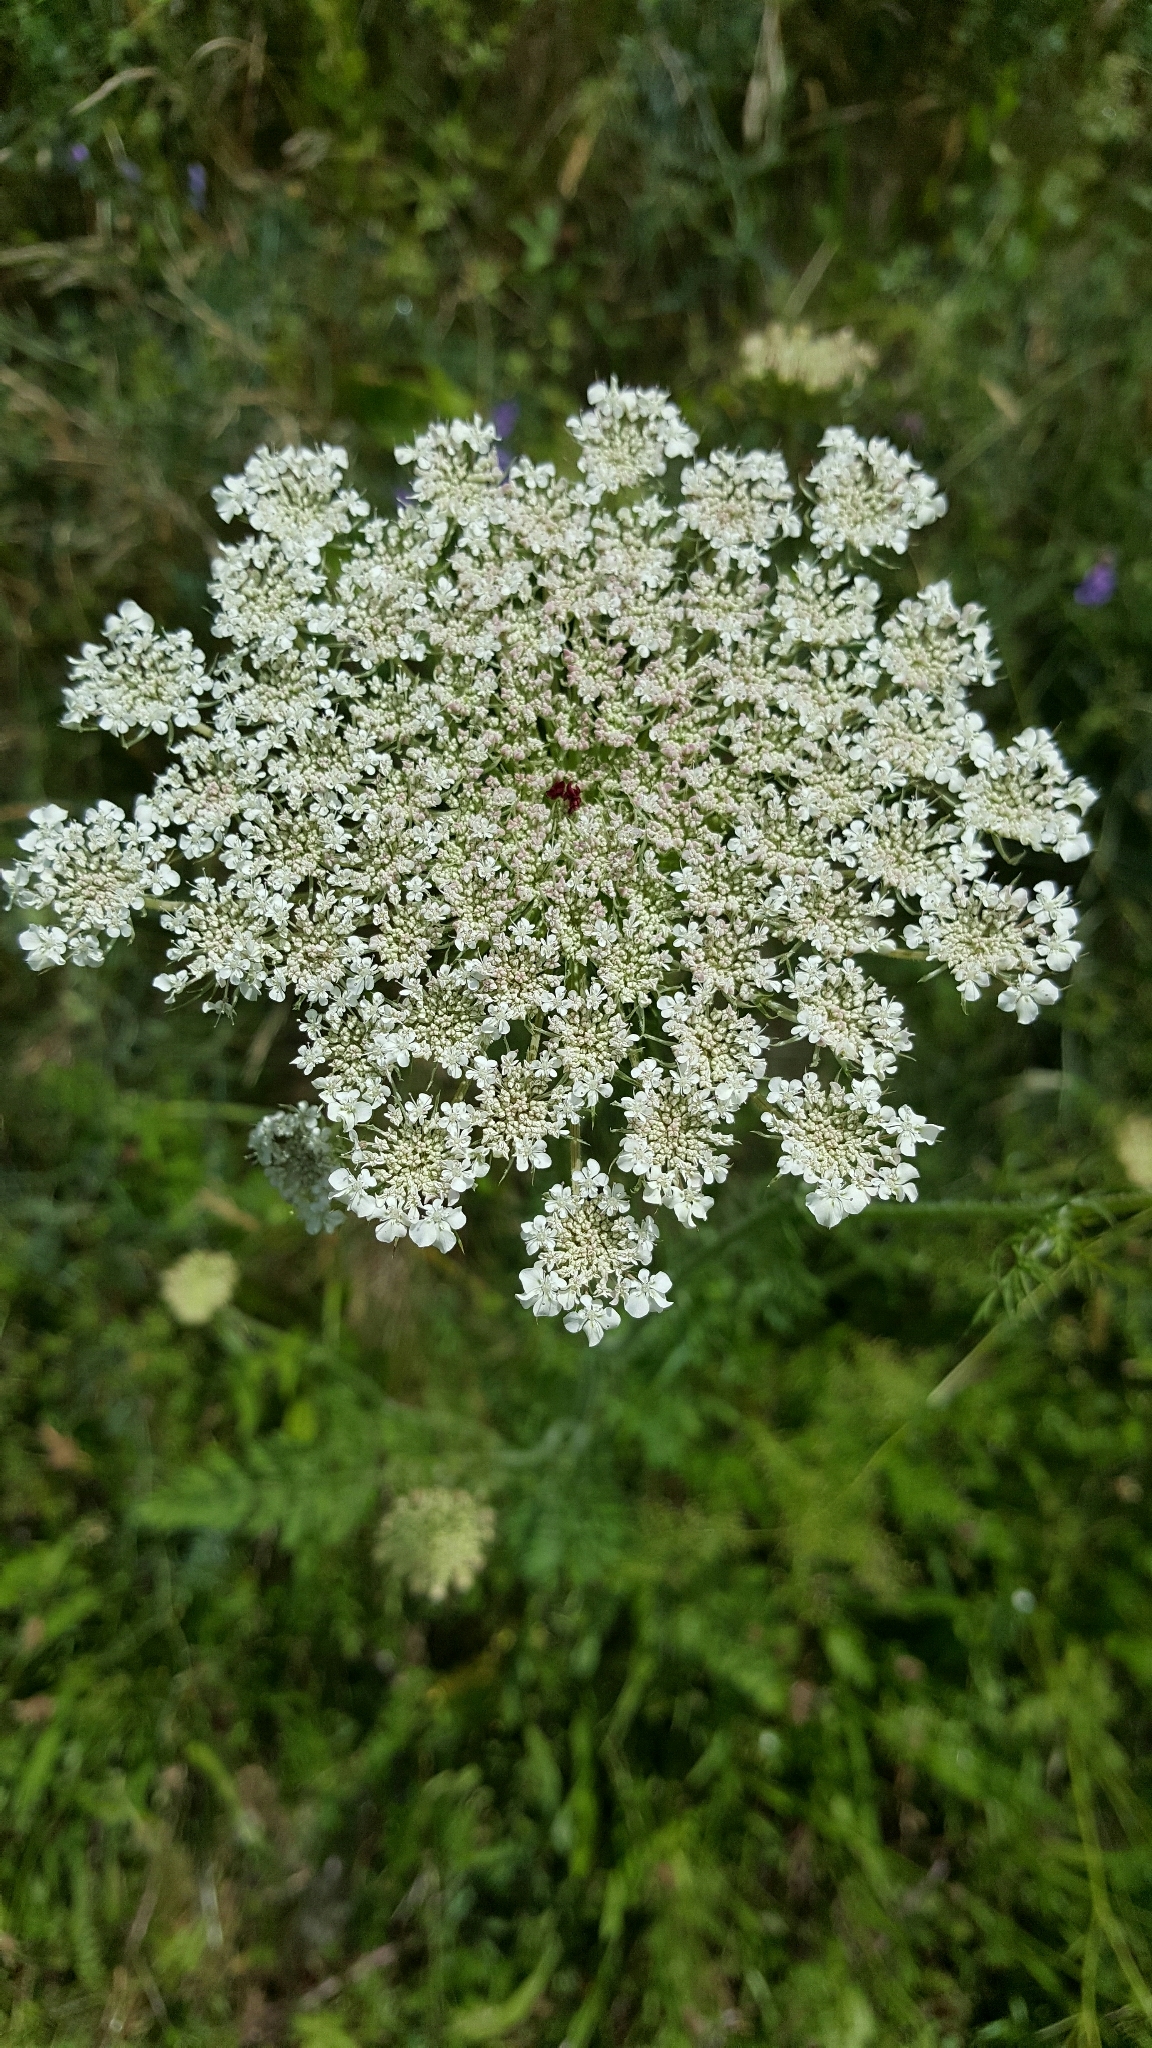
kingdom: Plantae
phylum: Tracheophyta
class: Magnoliopsida
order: Apiales
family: Apiaceae
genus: Daucus
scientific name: Daucus carota
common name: Wild carrot
